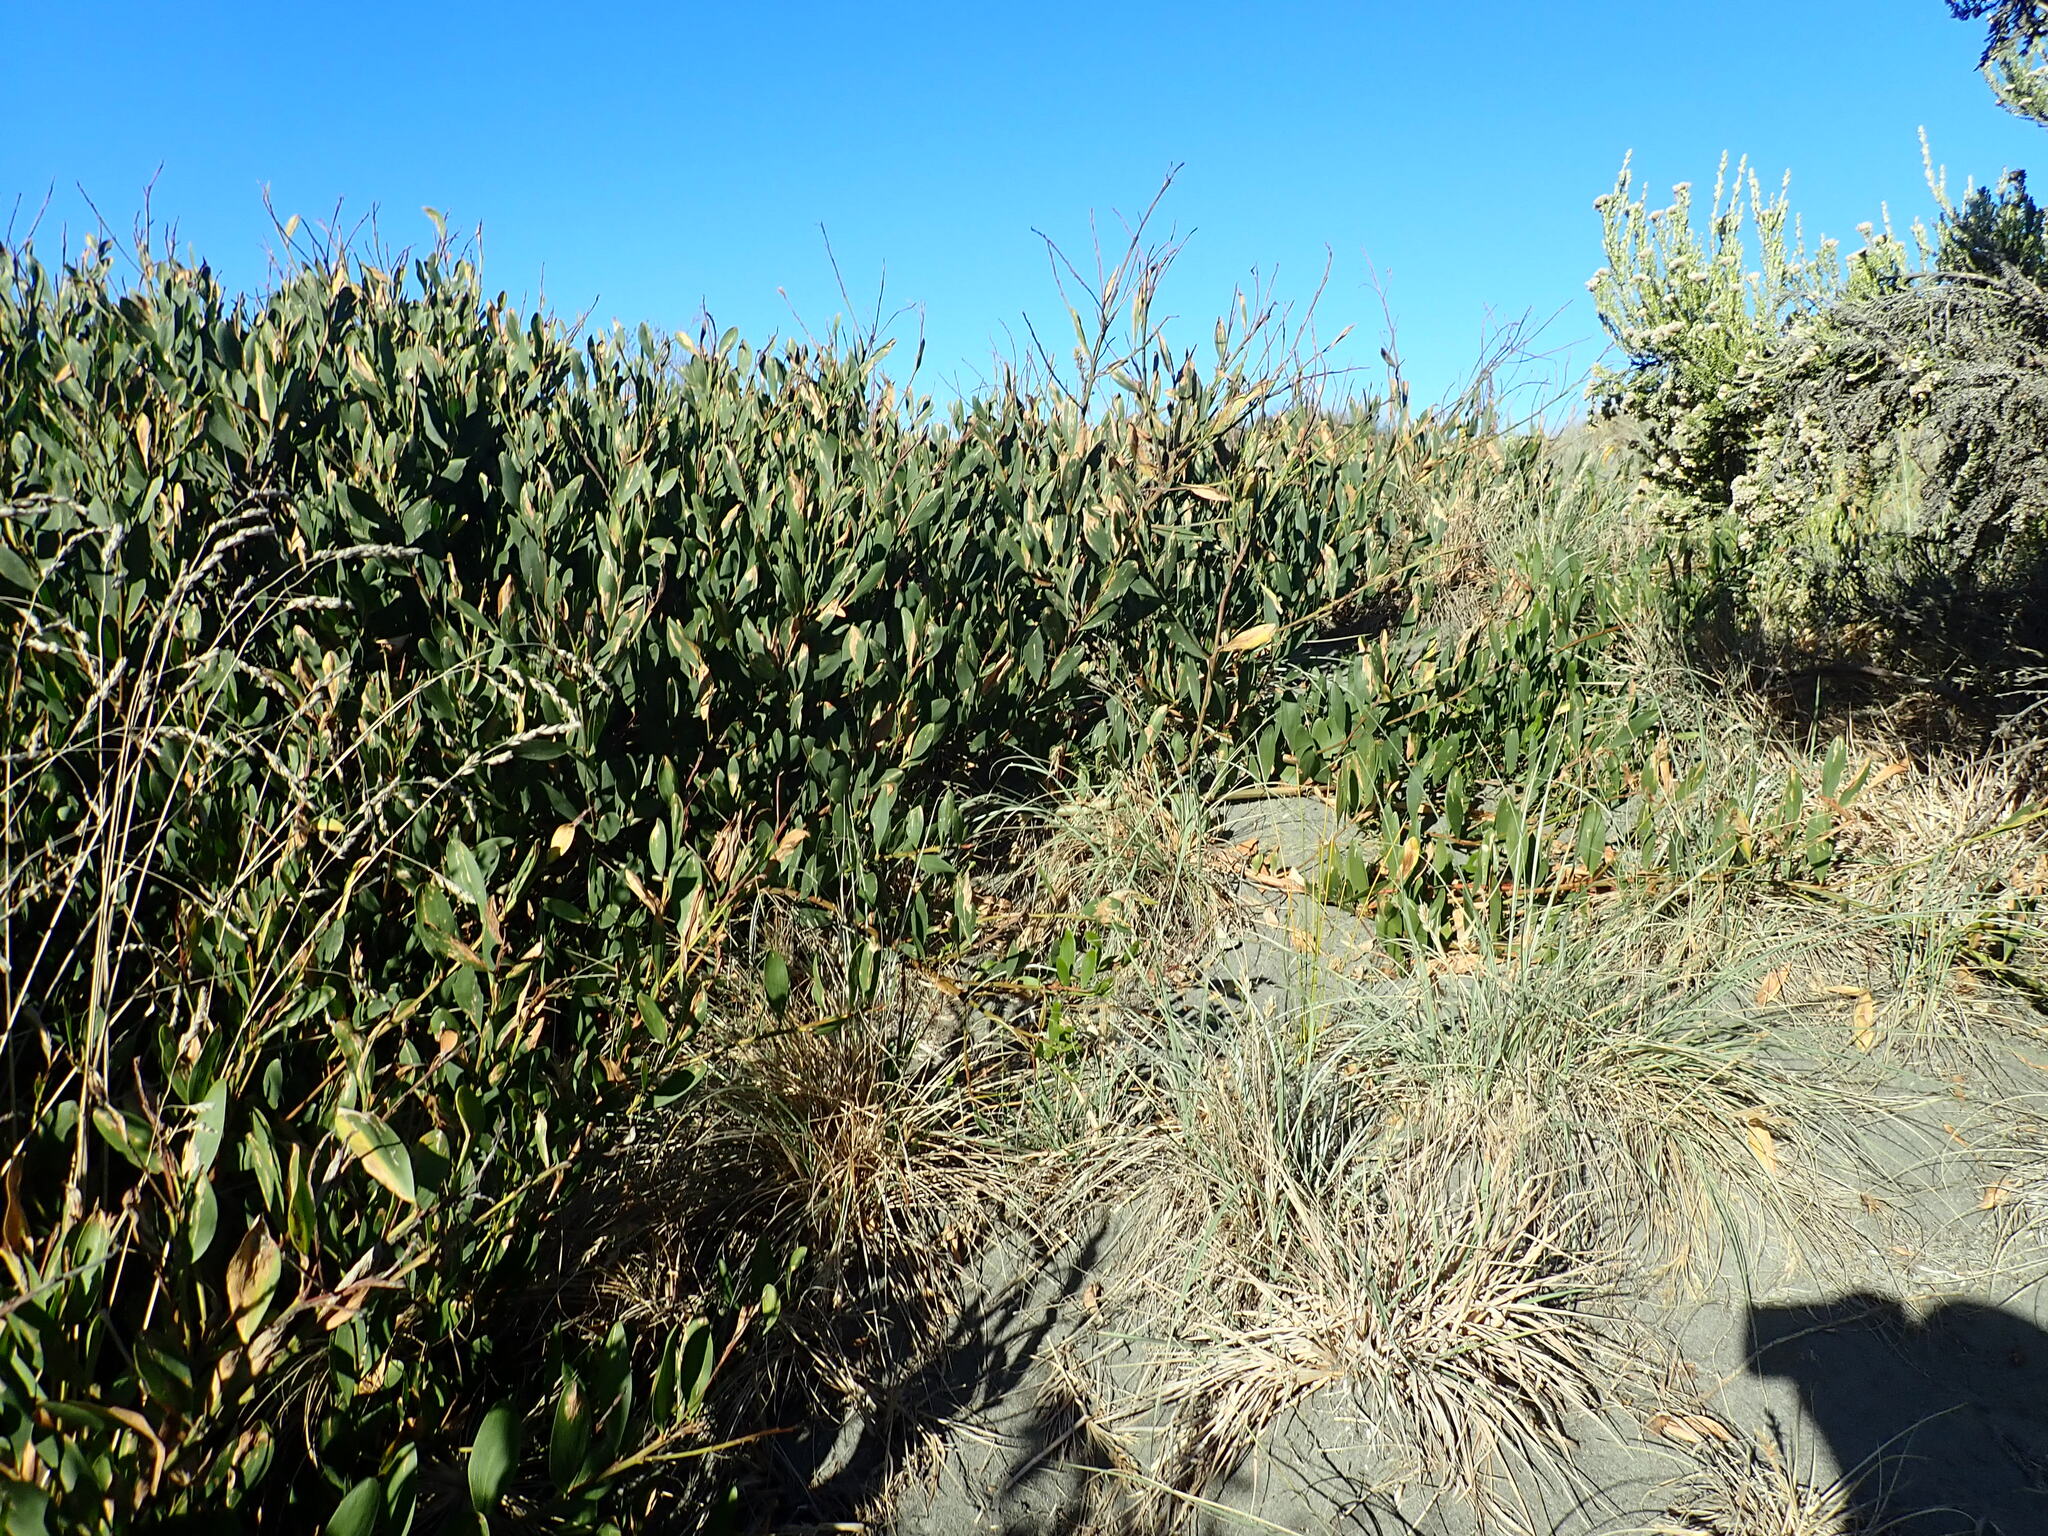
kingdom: Plantae
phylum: Tracheophyta
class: Magnoliopsida
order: Fabales
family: Fabaceae
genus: Acacia
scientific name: Acacia longifolia
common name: Sydney golden wattle
